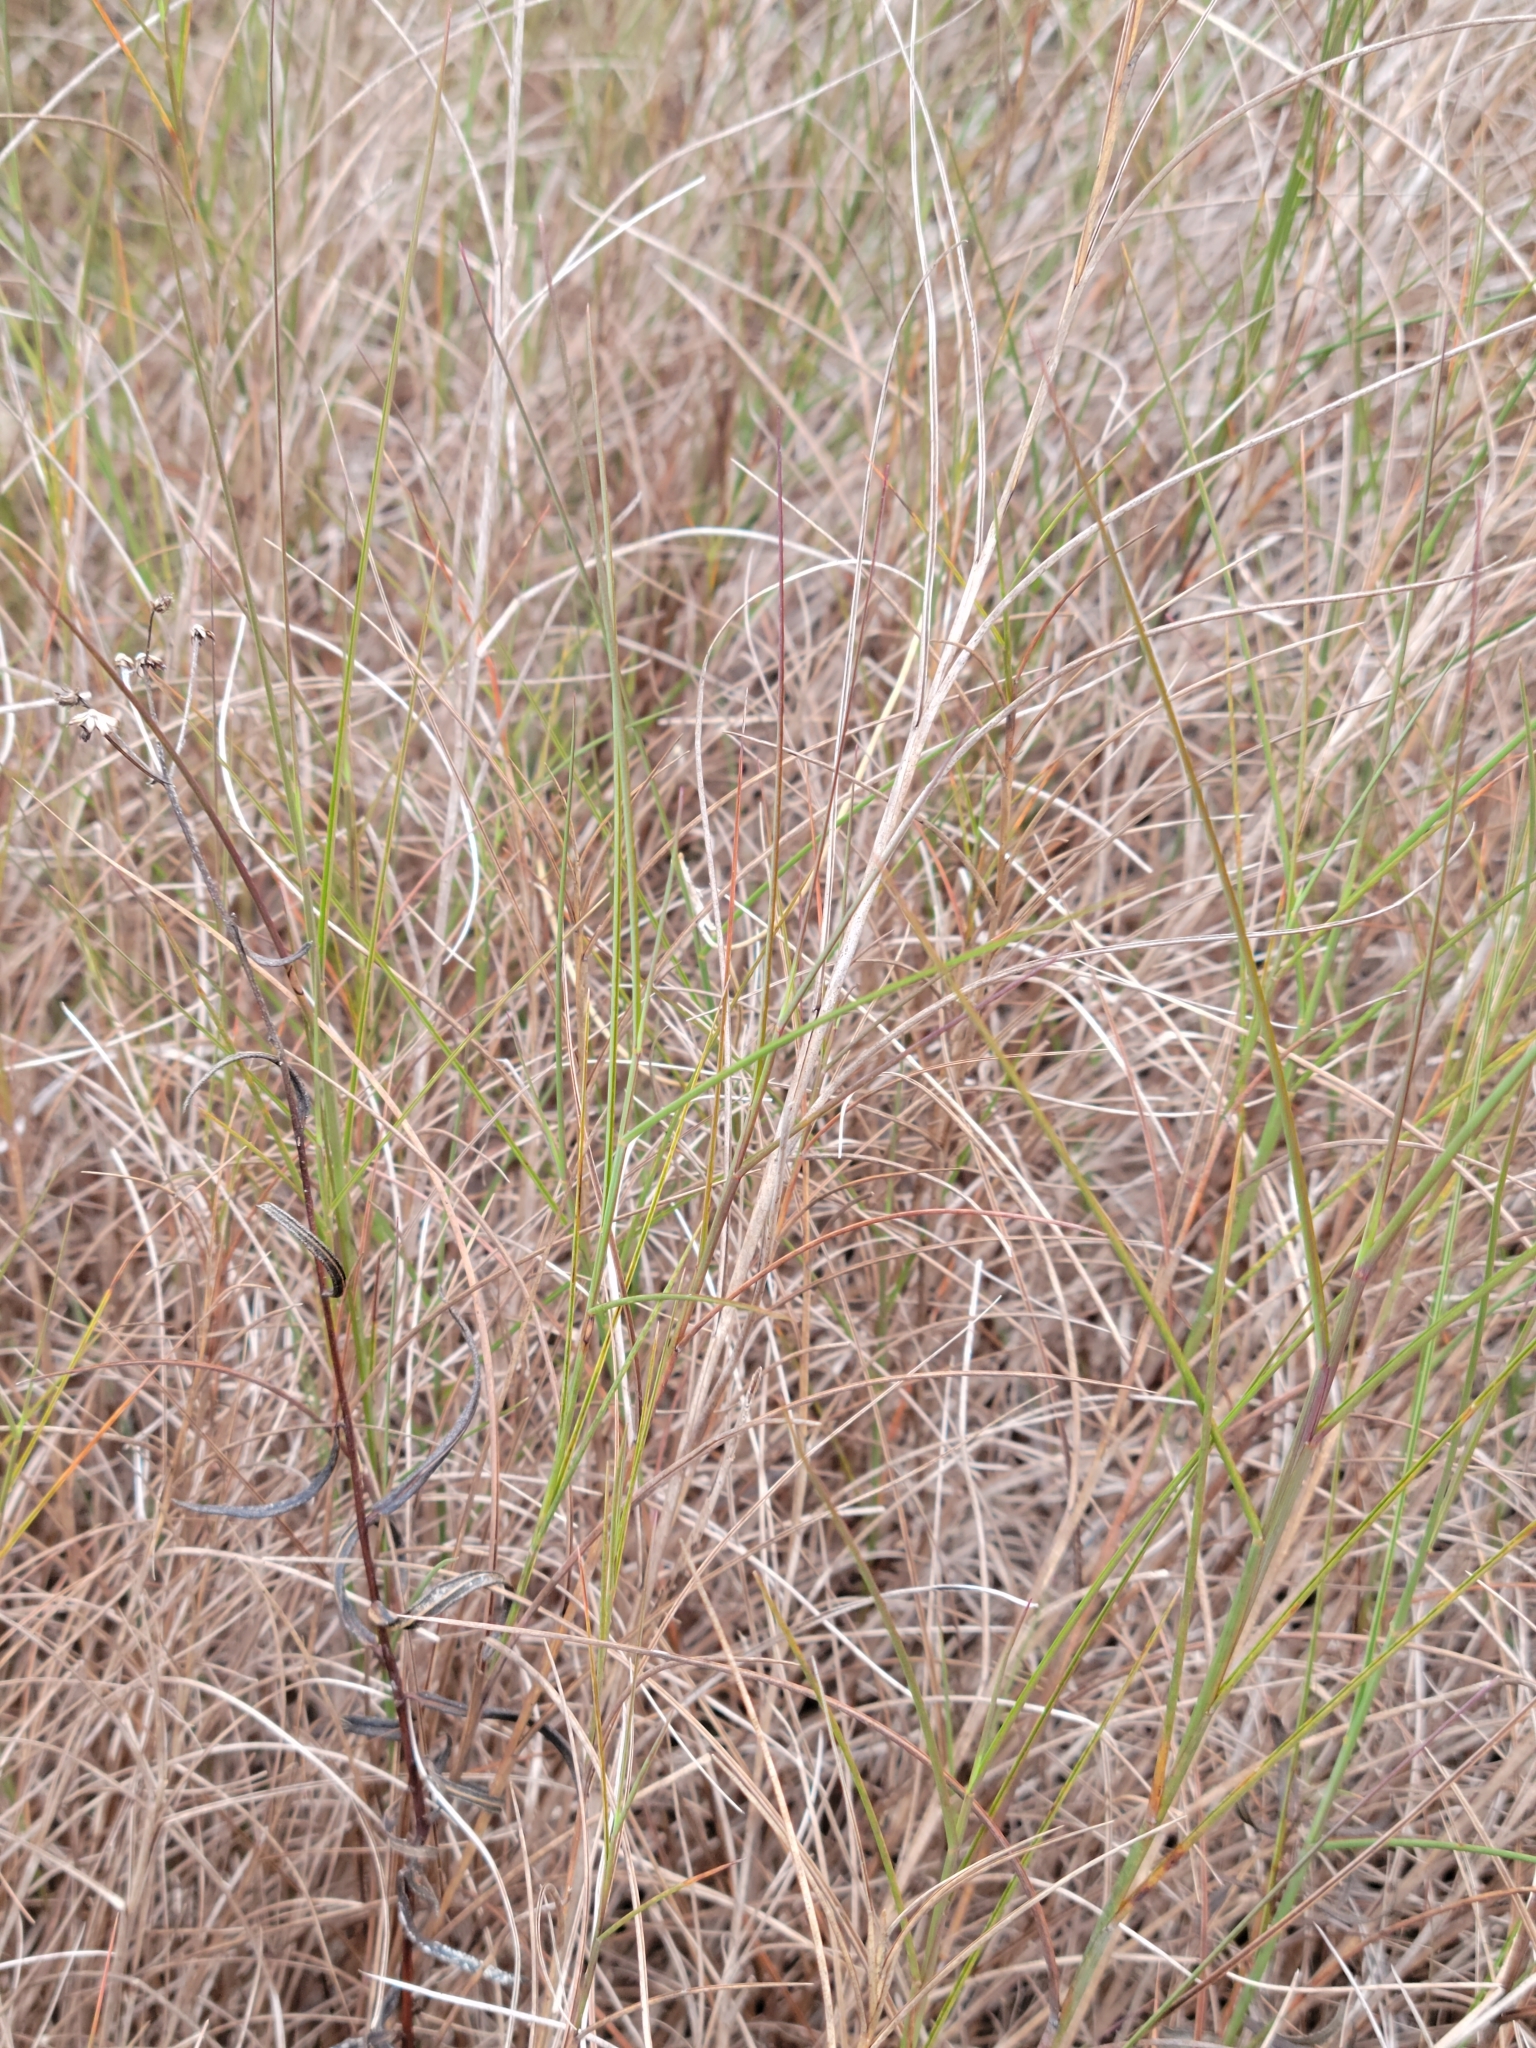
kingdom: Plantae
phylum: Tracheophyta
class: Liliopsida
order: Poales
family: Poaceae
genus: Schizachyrium
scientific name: Schizachyrium rhizomatum
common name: Florida little bluestem
